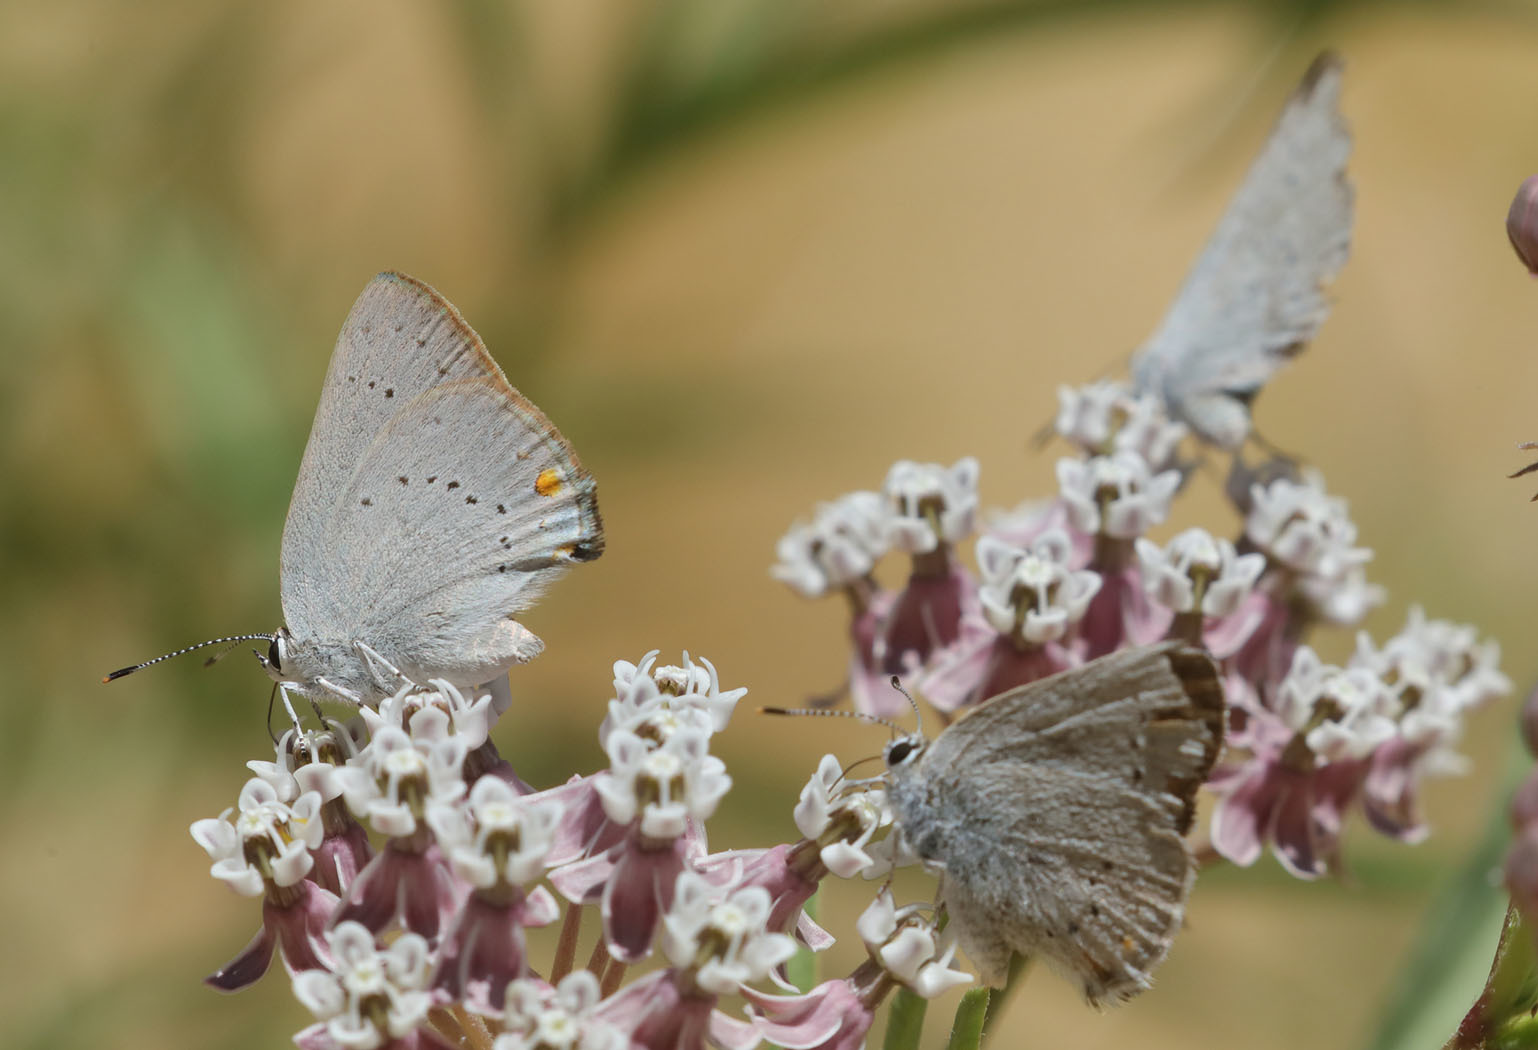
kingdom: Animalia
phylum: Arthropoda
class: Insecta
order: Lepidoptera
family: Lycaenidae
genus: Strymon
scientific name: Strymon sylvinus
